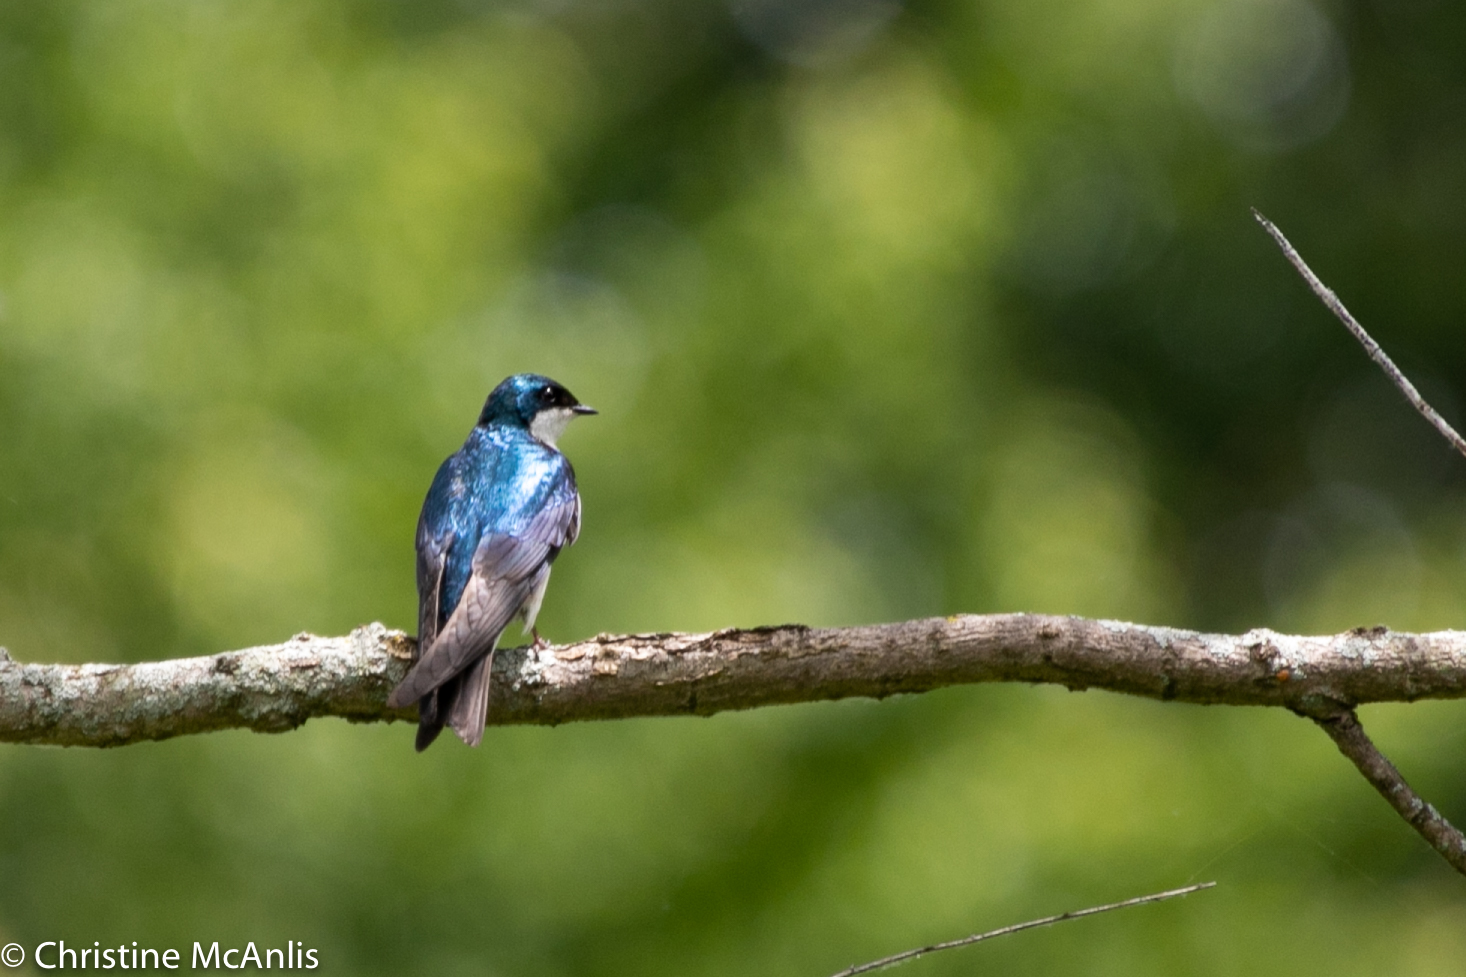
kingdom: Animalia
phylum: Chordata
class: Aves
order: Passeriformes
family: Hirundinidae
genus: Tachycineta
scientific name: Tachycineta bicolor
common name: Tree swallow
